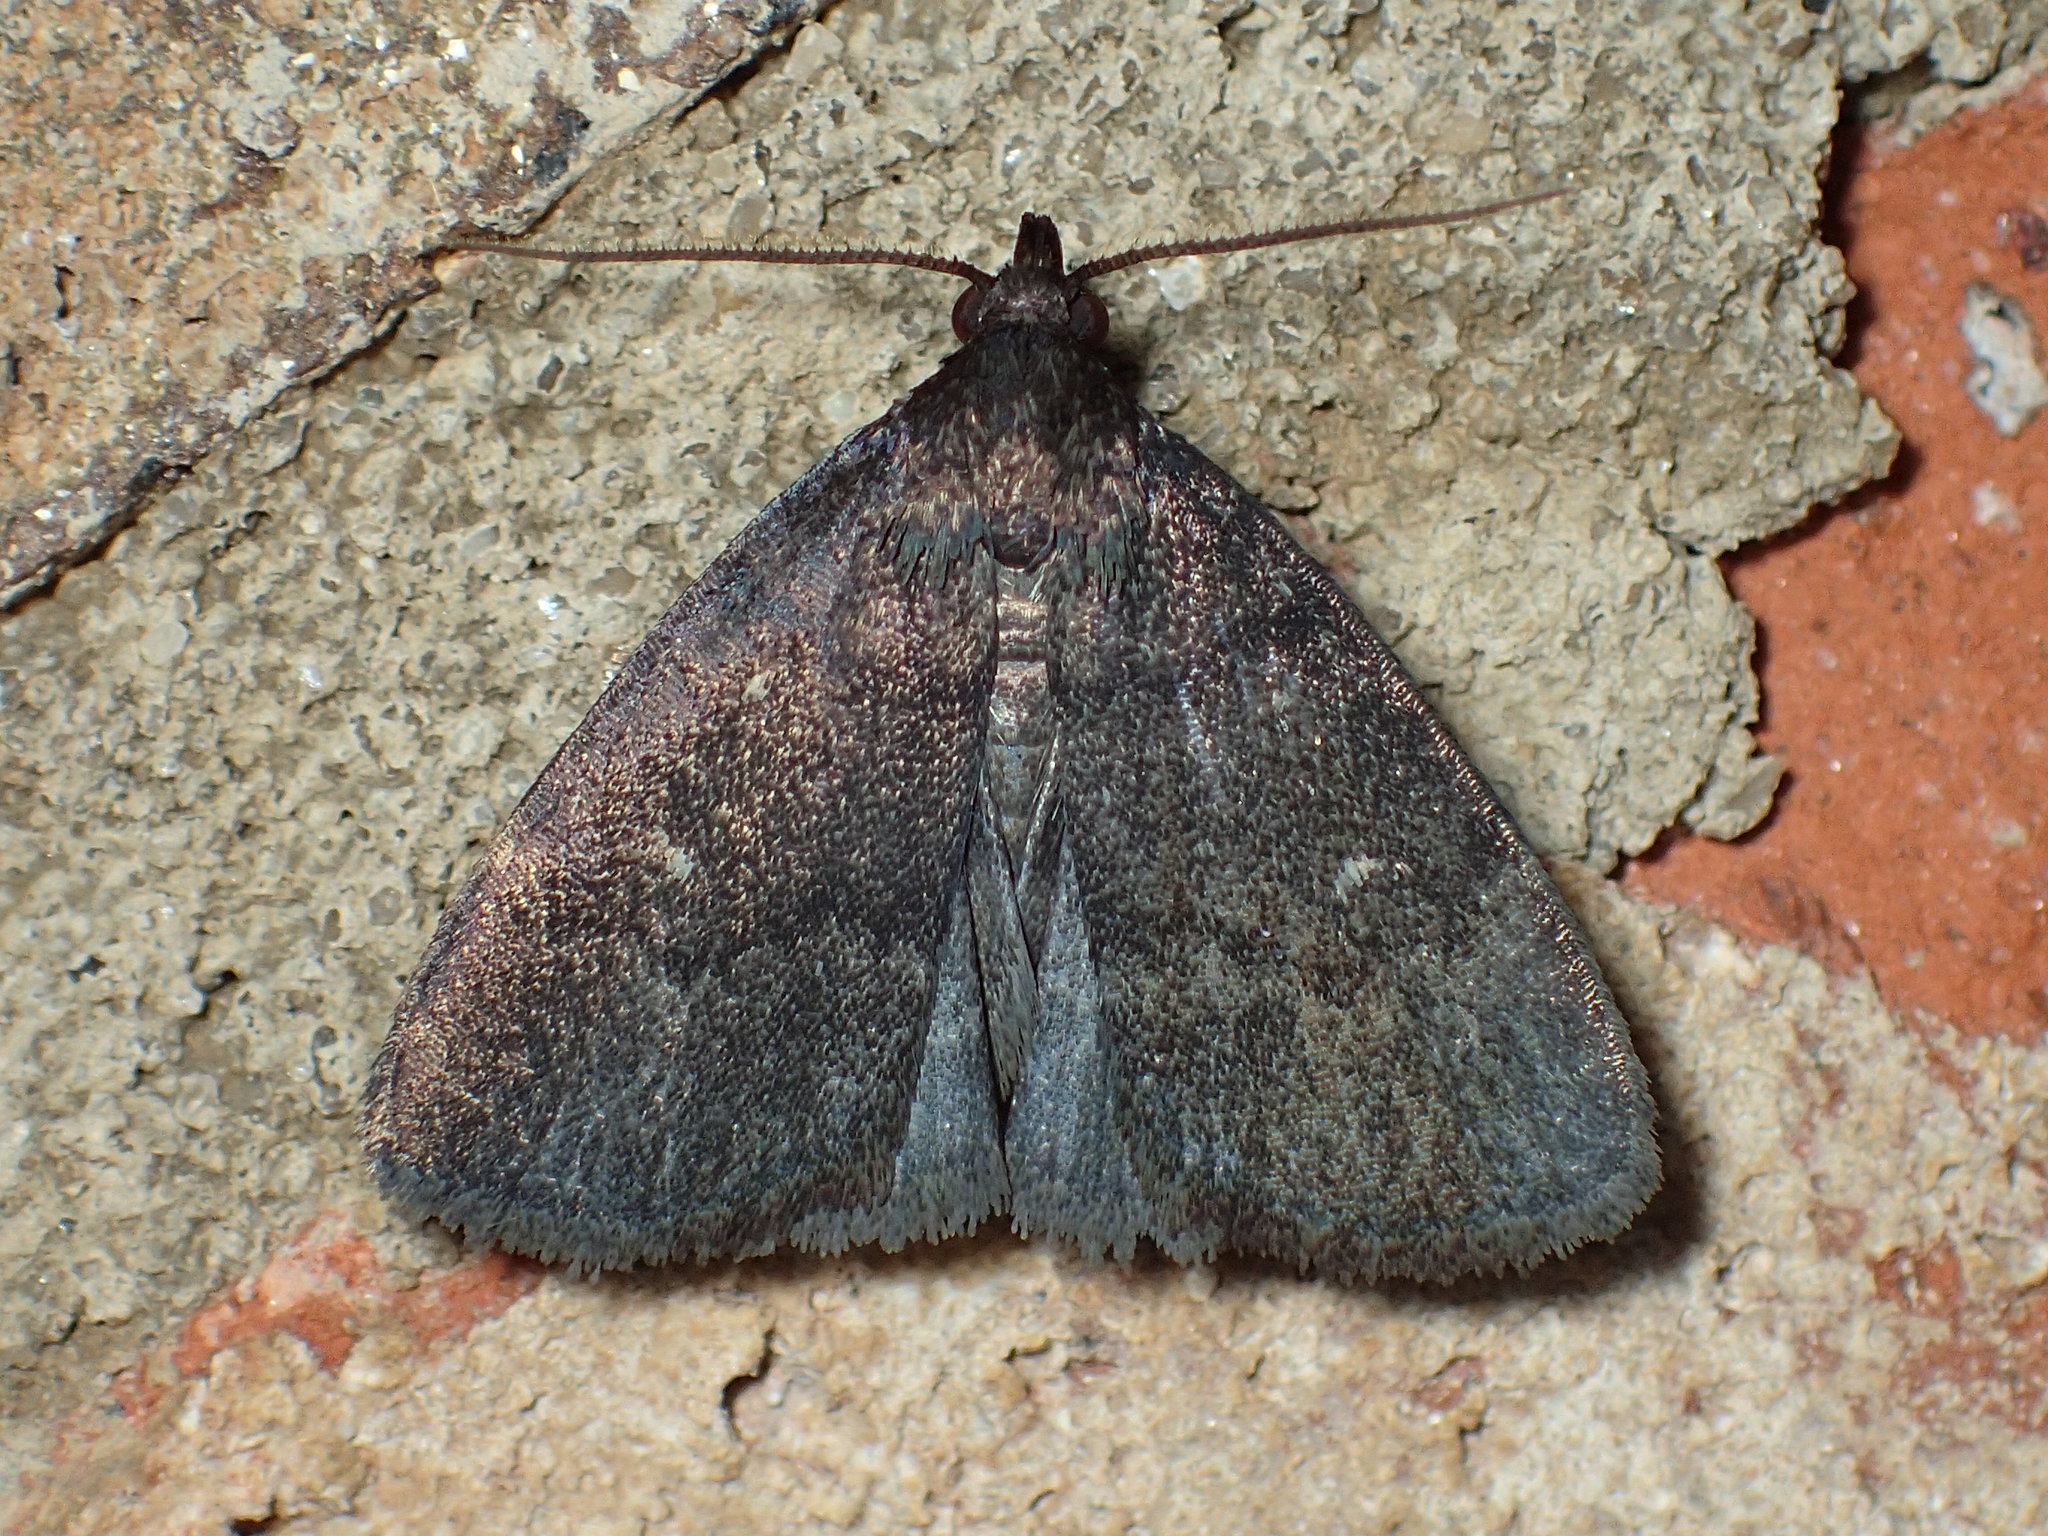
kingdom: Animalia
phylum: Arthropoda
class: Insecta
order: Lepidoptera
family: Erebidae
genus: Idia
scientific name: Idia rotundalis
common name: Rotund idia moth
